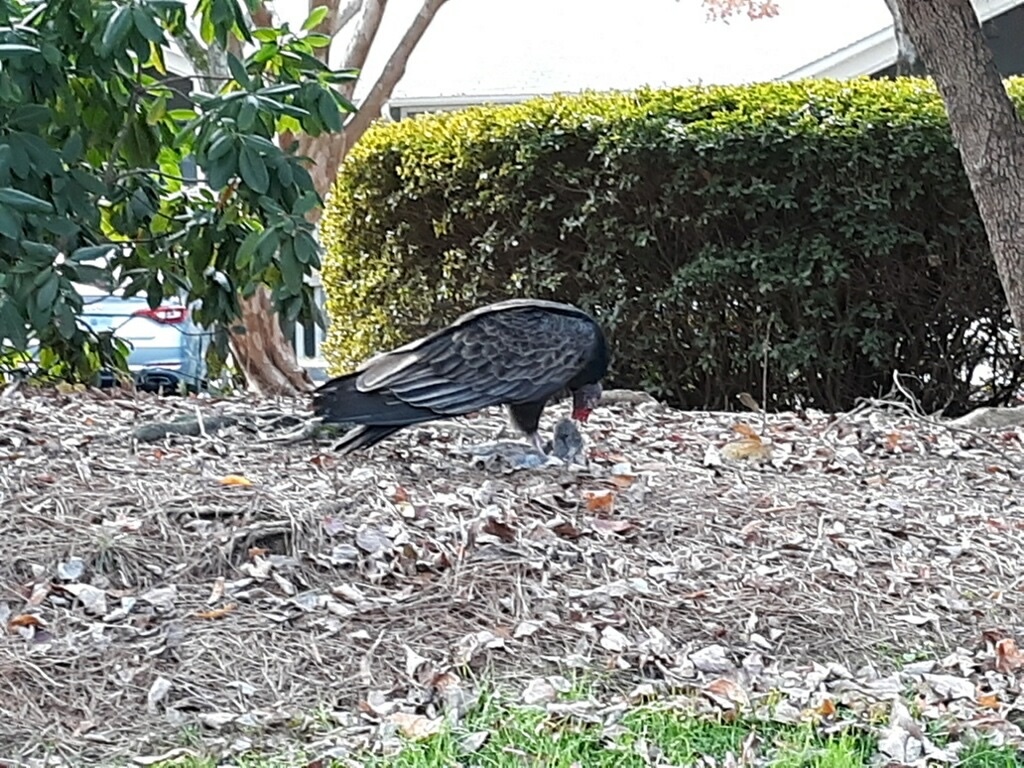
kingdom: Animalia
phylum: Chordata
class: Aves
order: Accipitriformes
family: Cathartidae
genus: Cathartes
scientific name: Cathartes aura
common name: Turkey vulture
